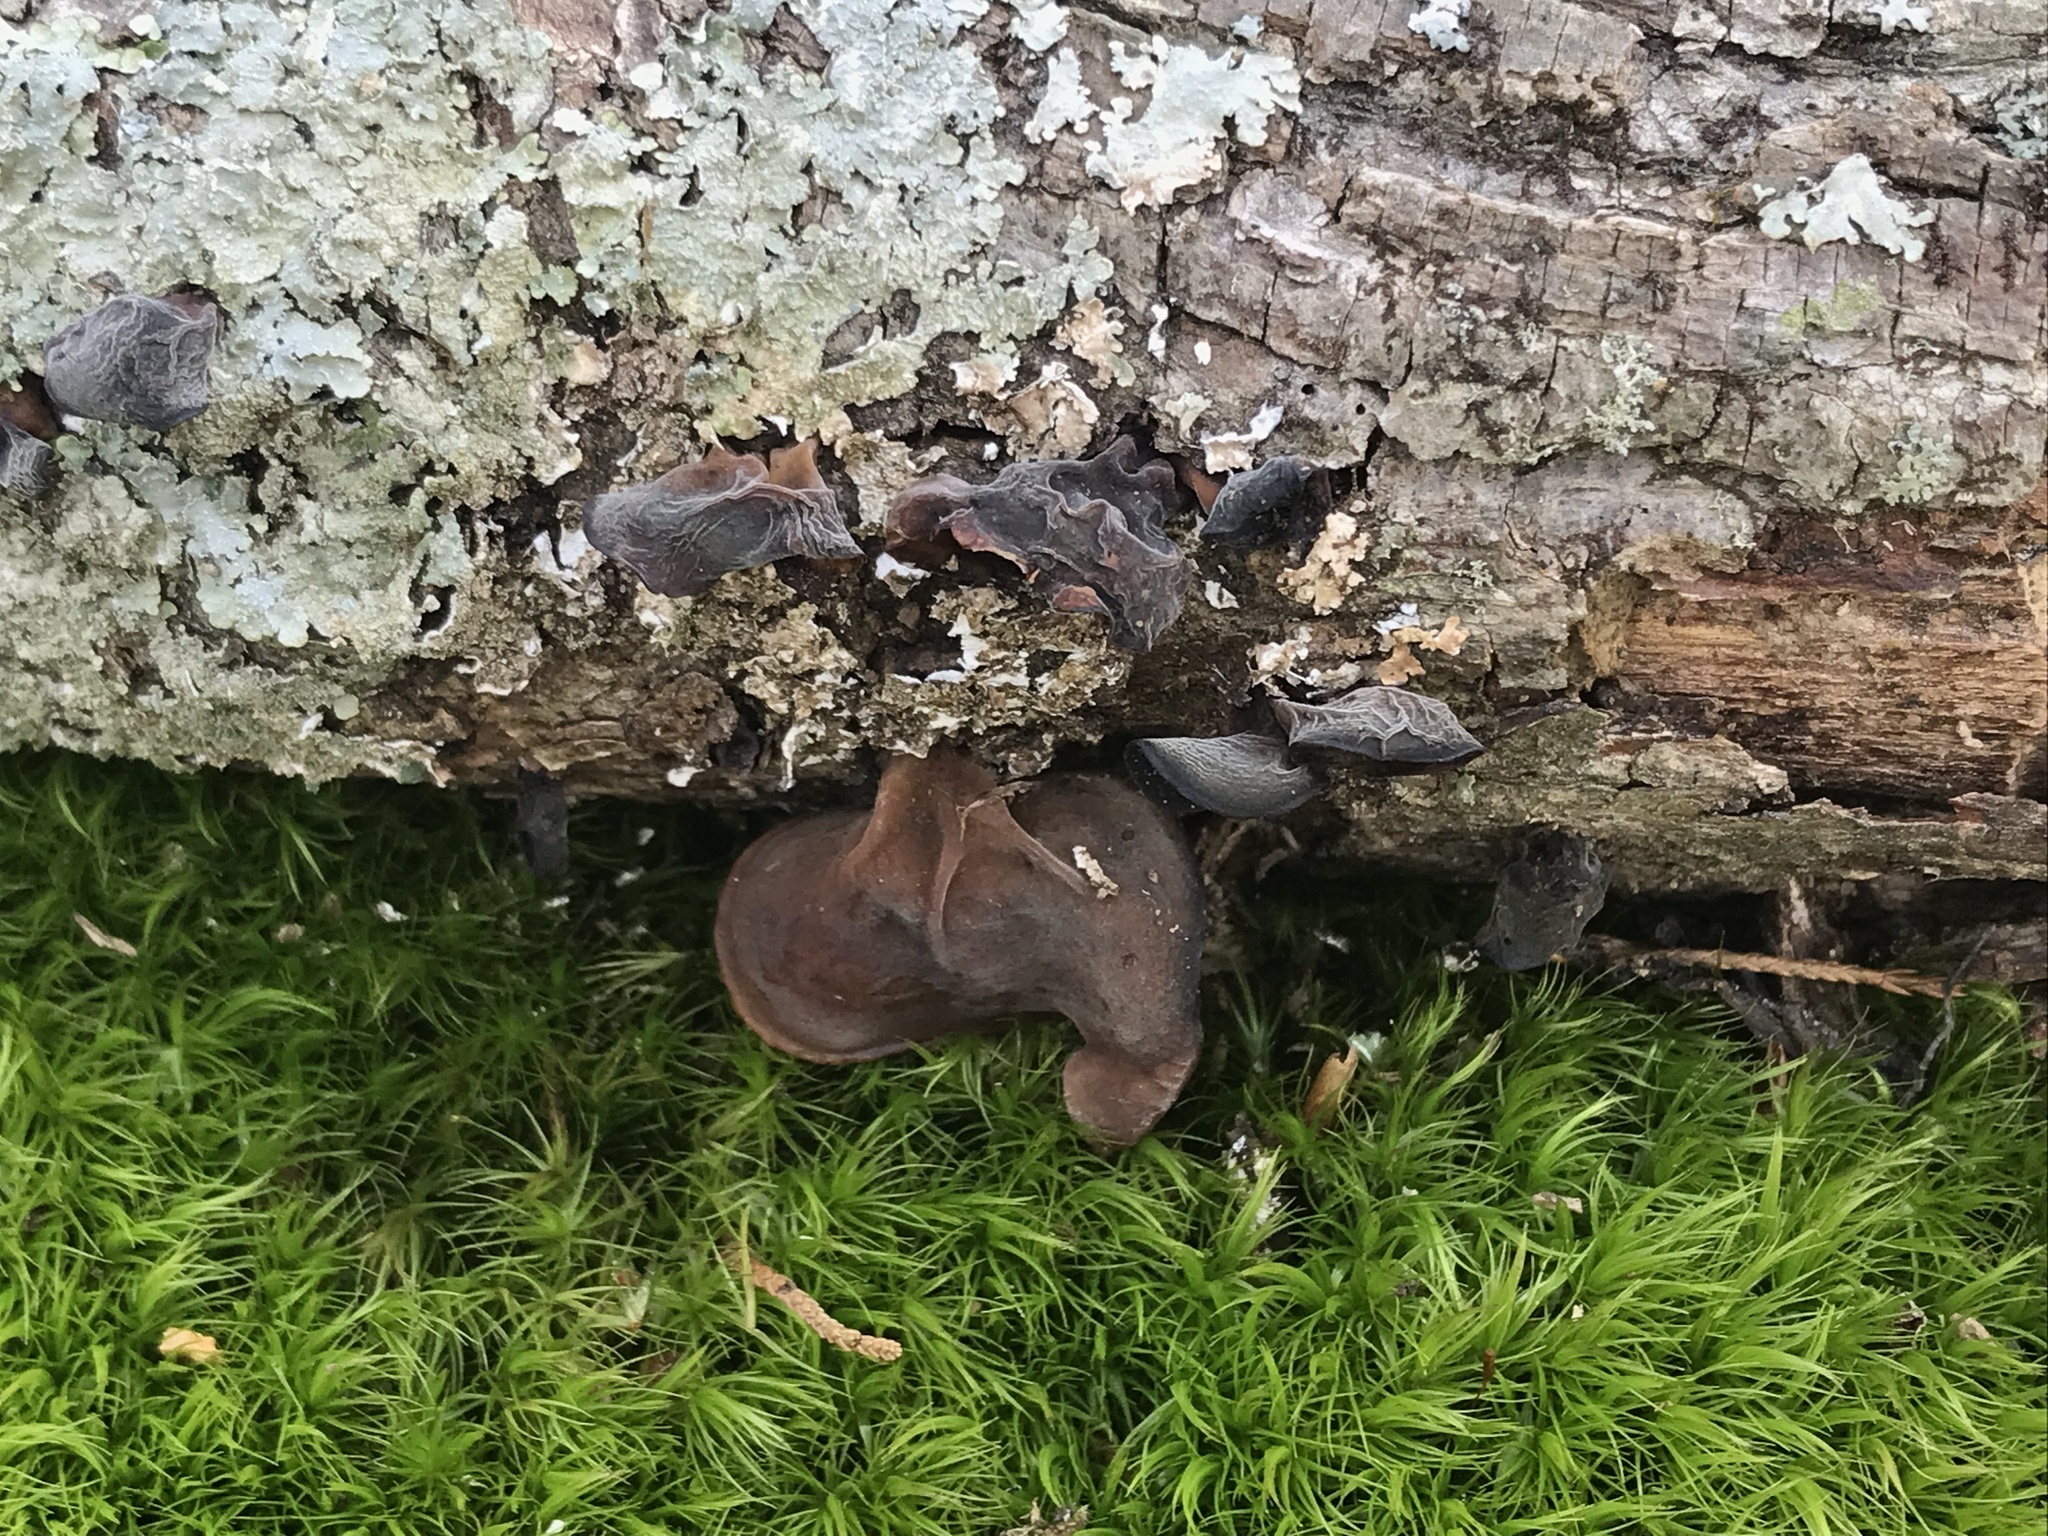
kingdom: Fungi
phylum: Basidiomycota
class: Agaricomycetes
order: Auriculariales
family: Auriculariaceae
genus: Auricularia
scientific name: Auricularia angiospermarum
